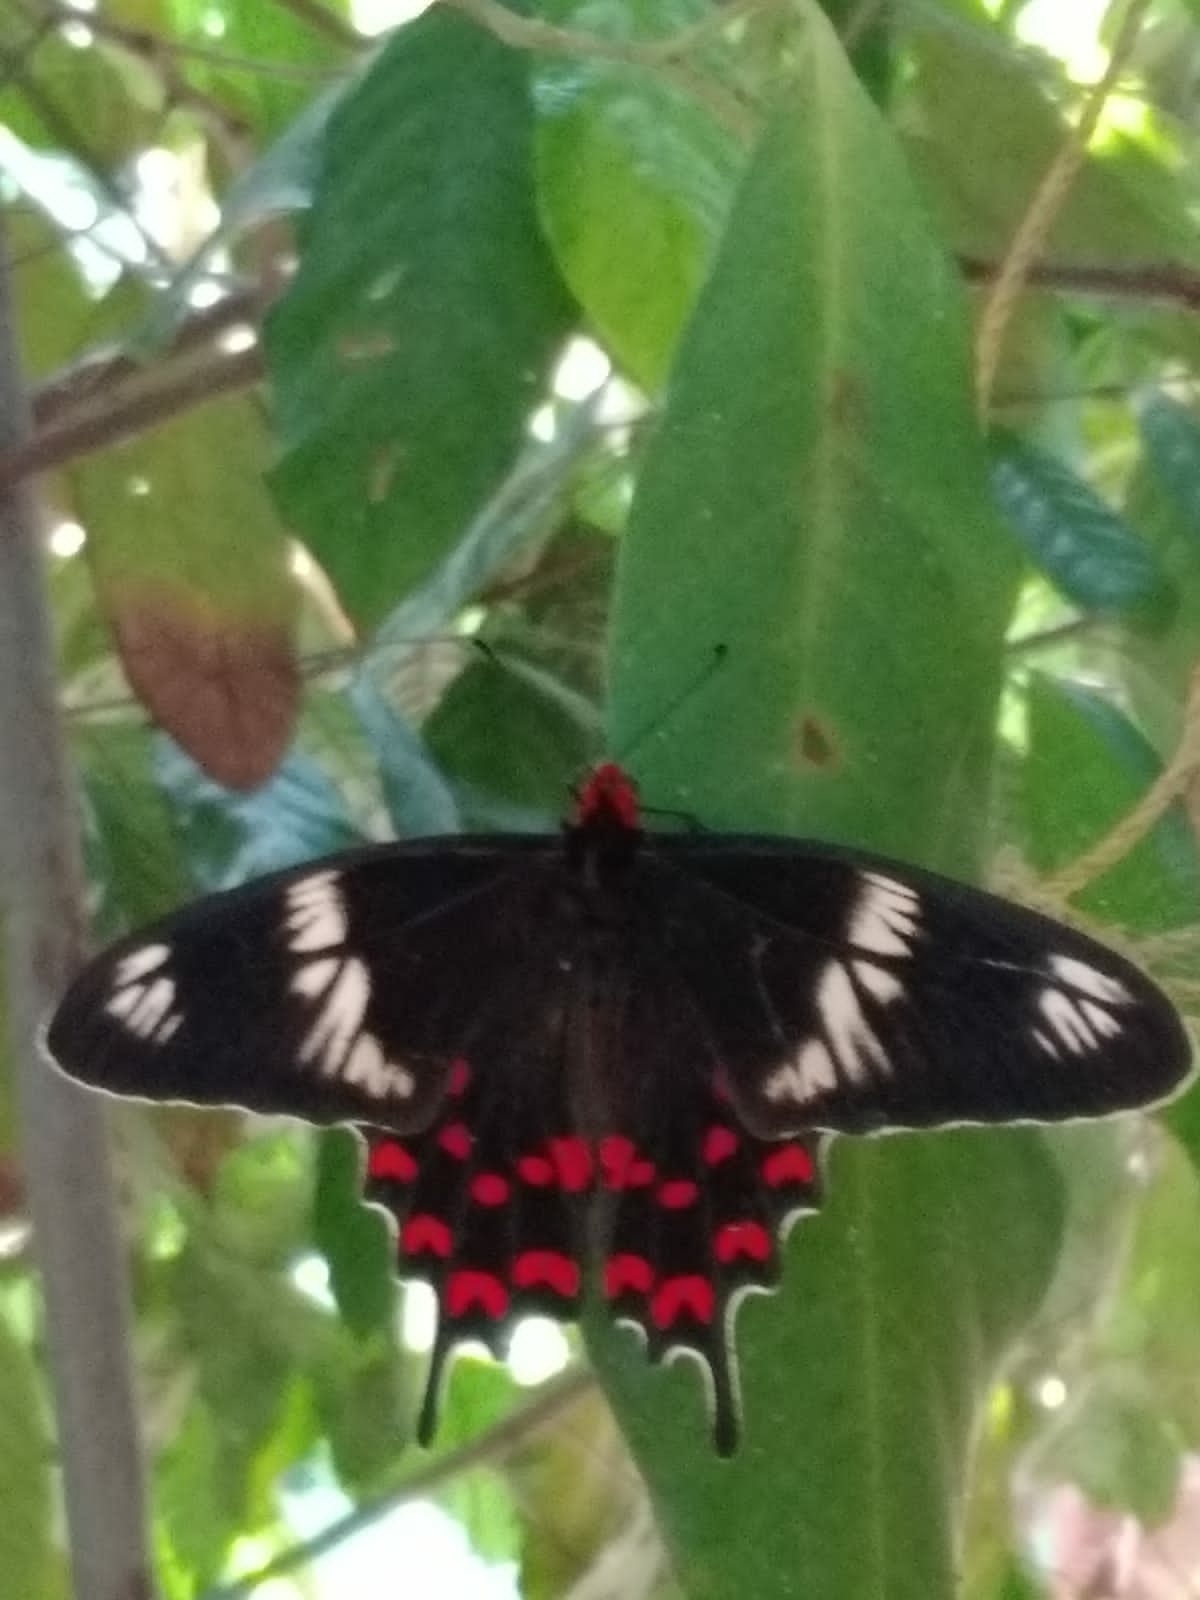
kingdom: Animalia
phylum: Arthropoda
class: Insecta
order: Lepidoptera
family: Papilionidae
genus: Pachliopta
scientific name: Pachliopta hector
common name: Crimson rose
